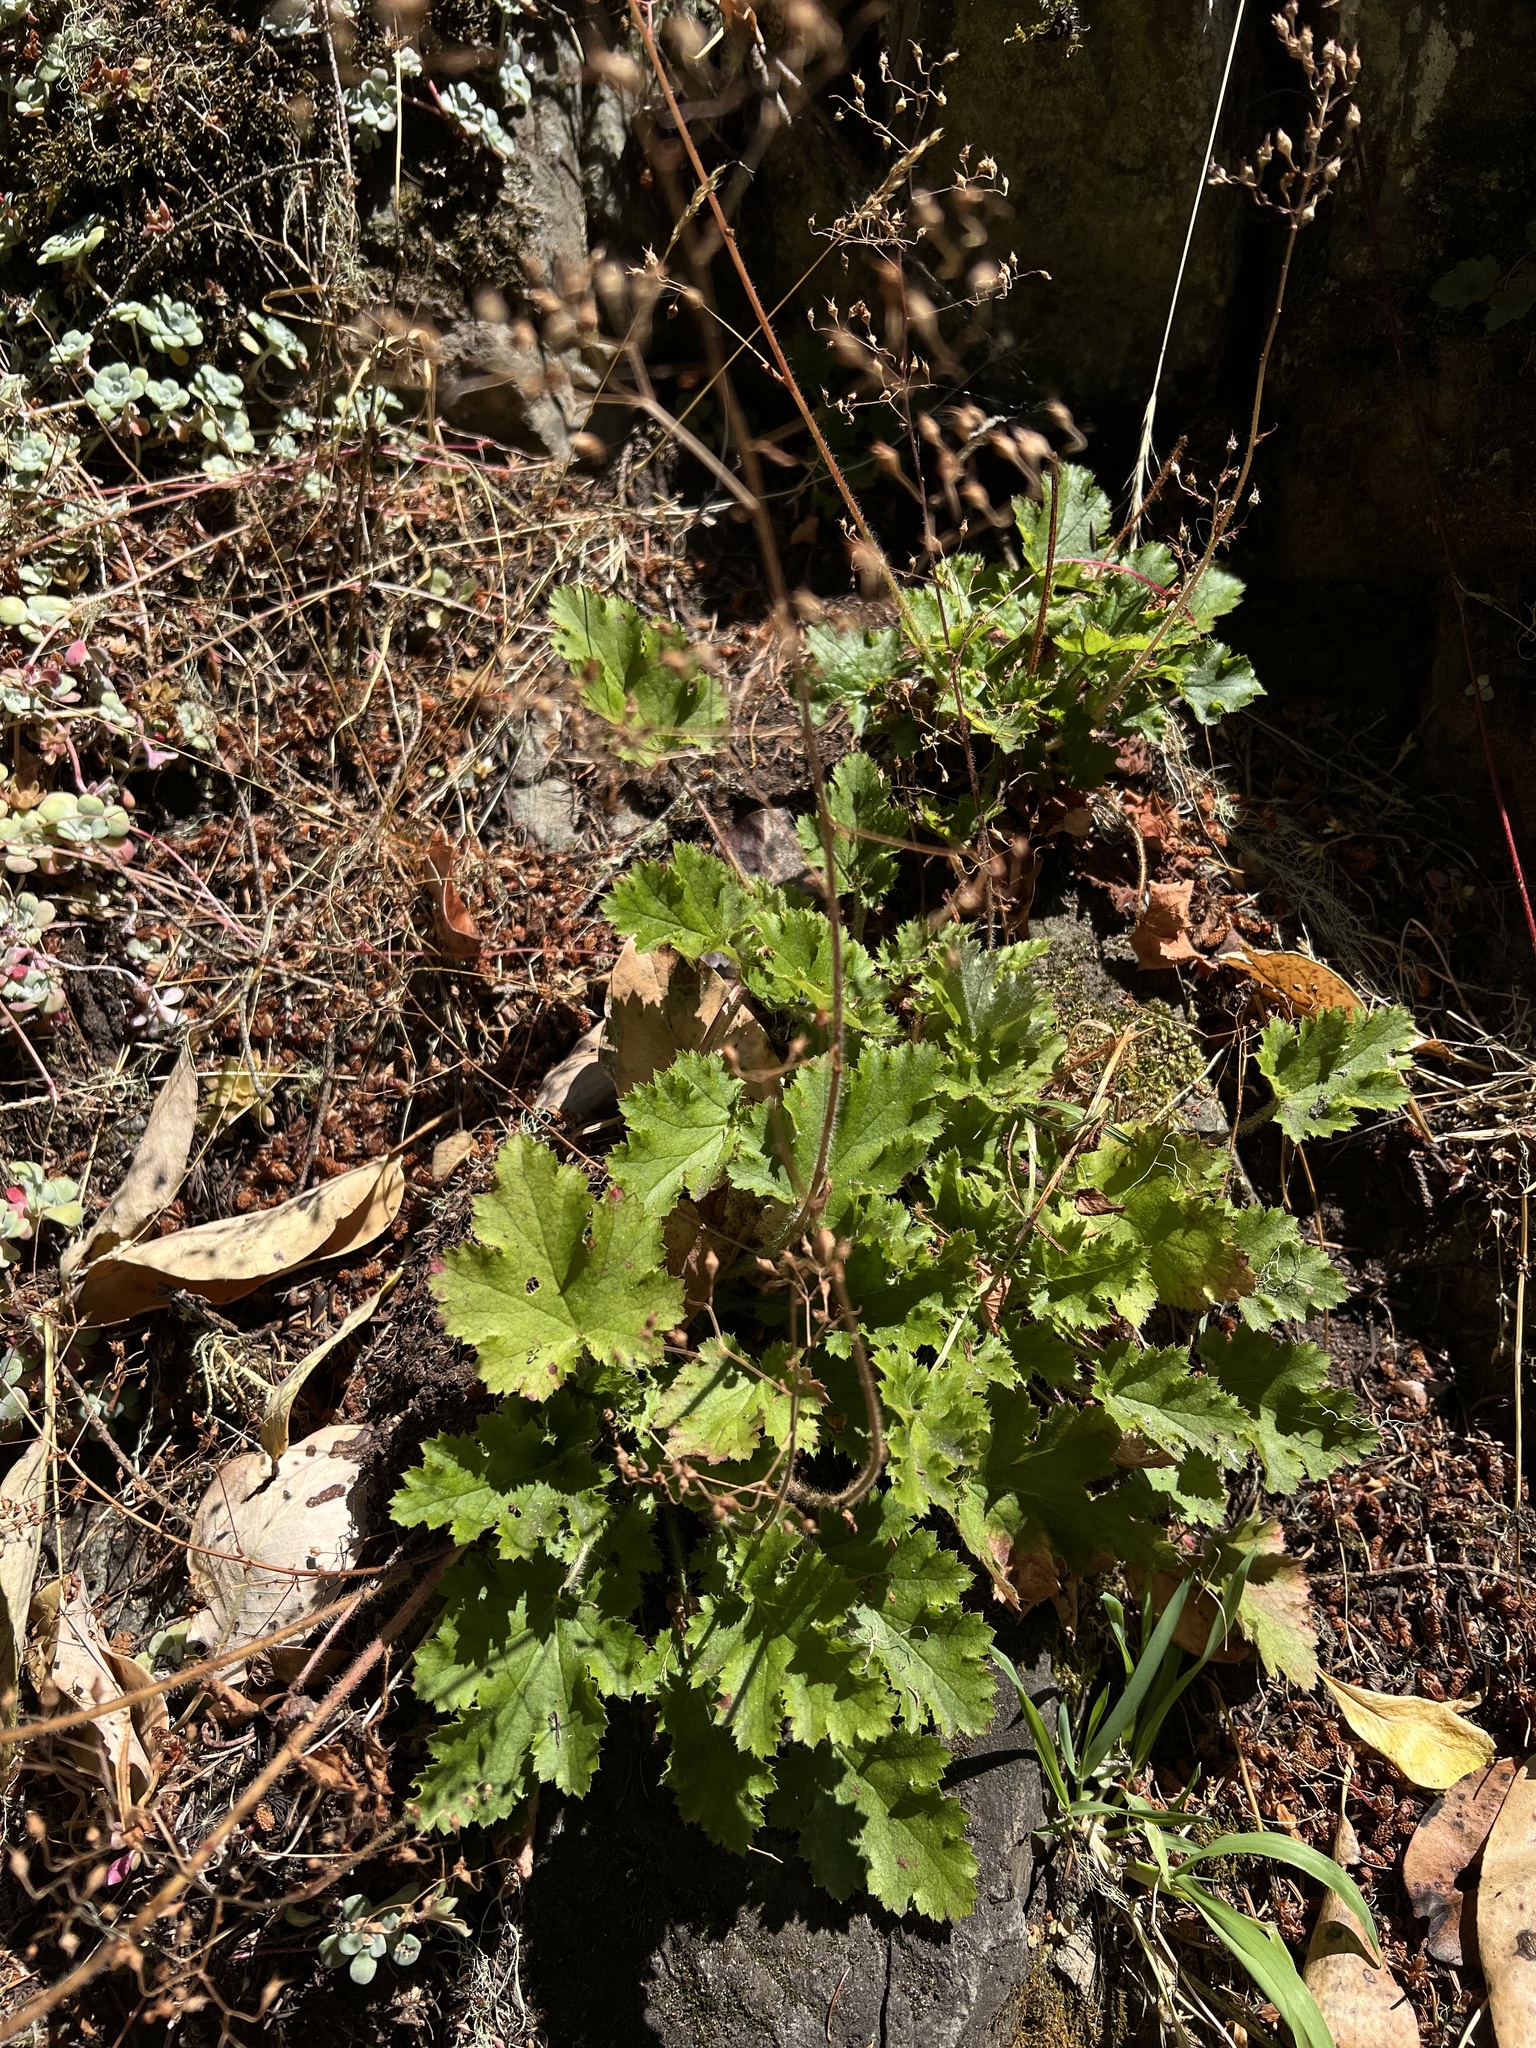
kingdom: Plantae
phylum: Tracheophyta
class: Magnoliopsida
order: Saxifragales
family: Saxifragaceae
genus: Heuchera
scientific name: Heuchera micrantha
